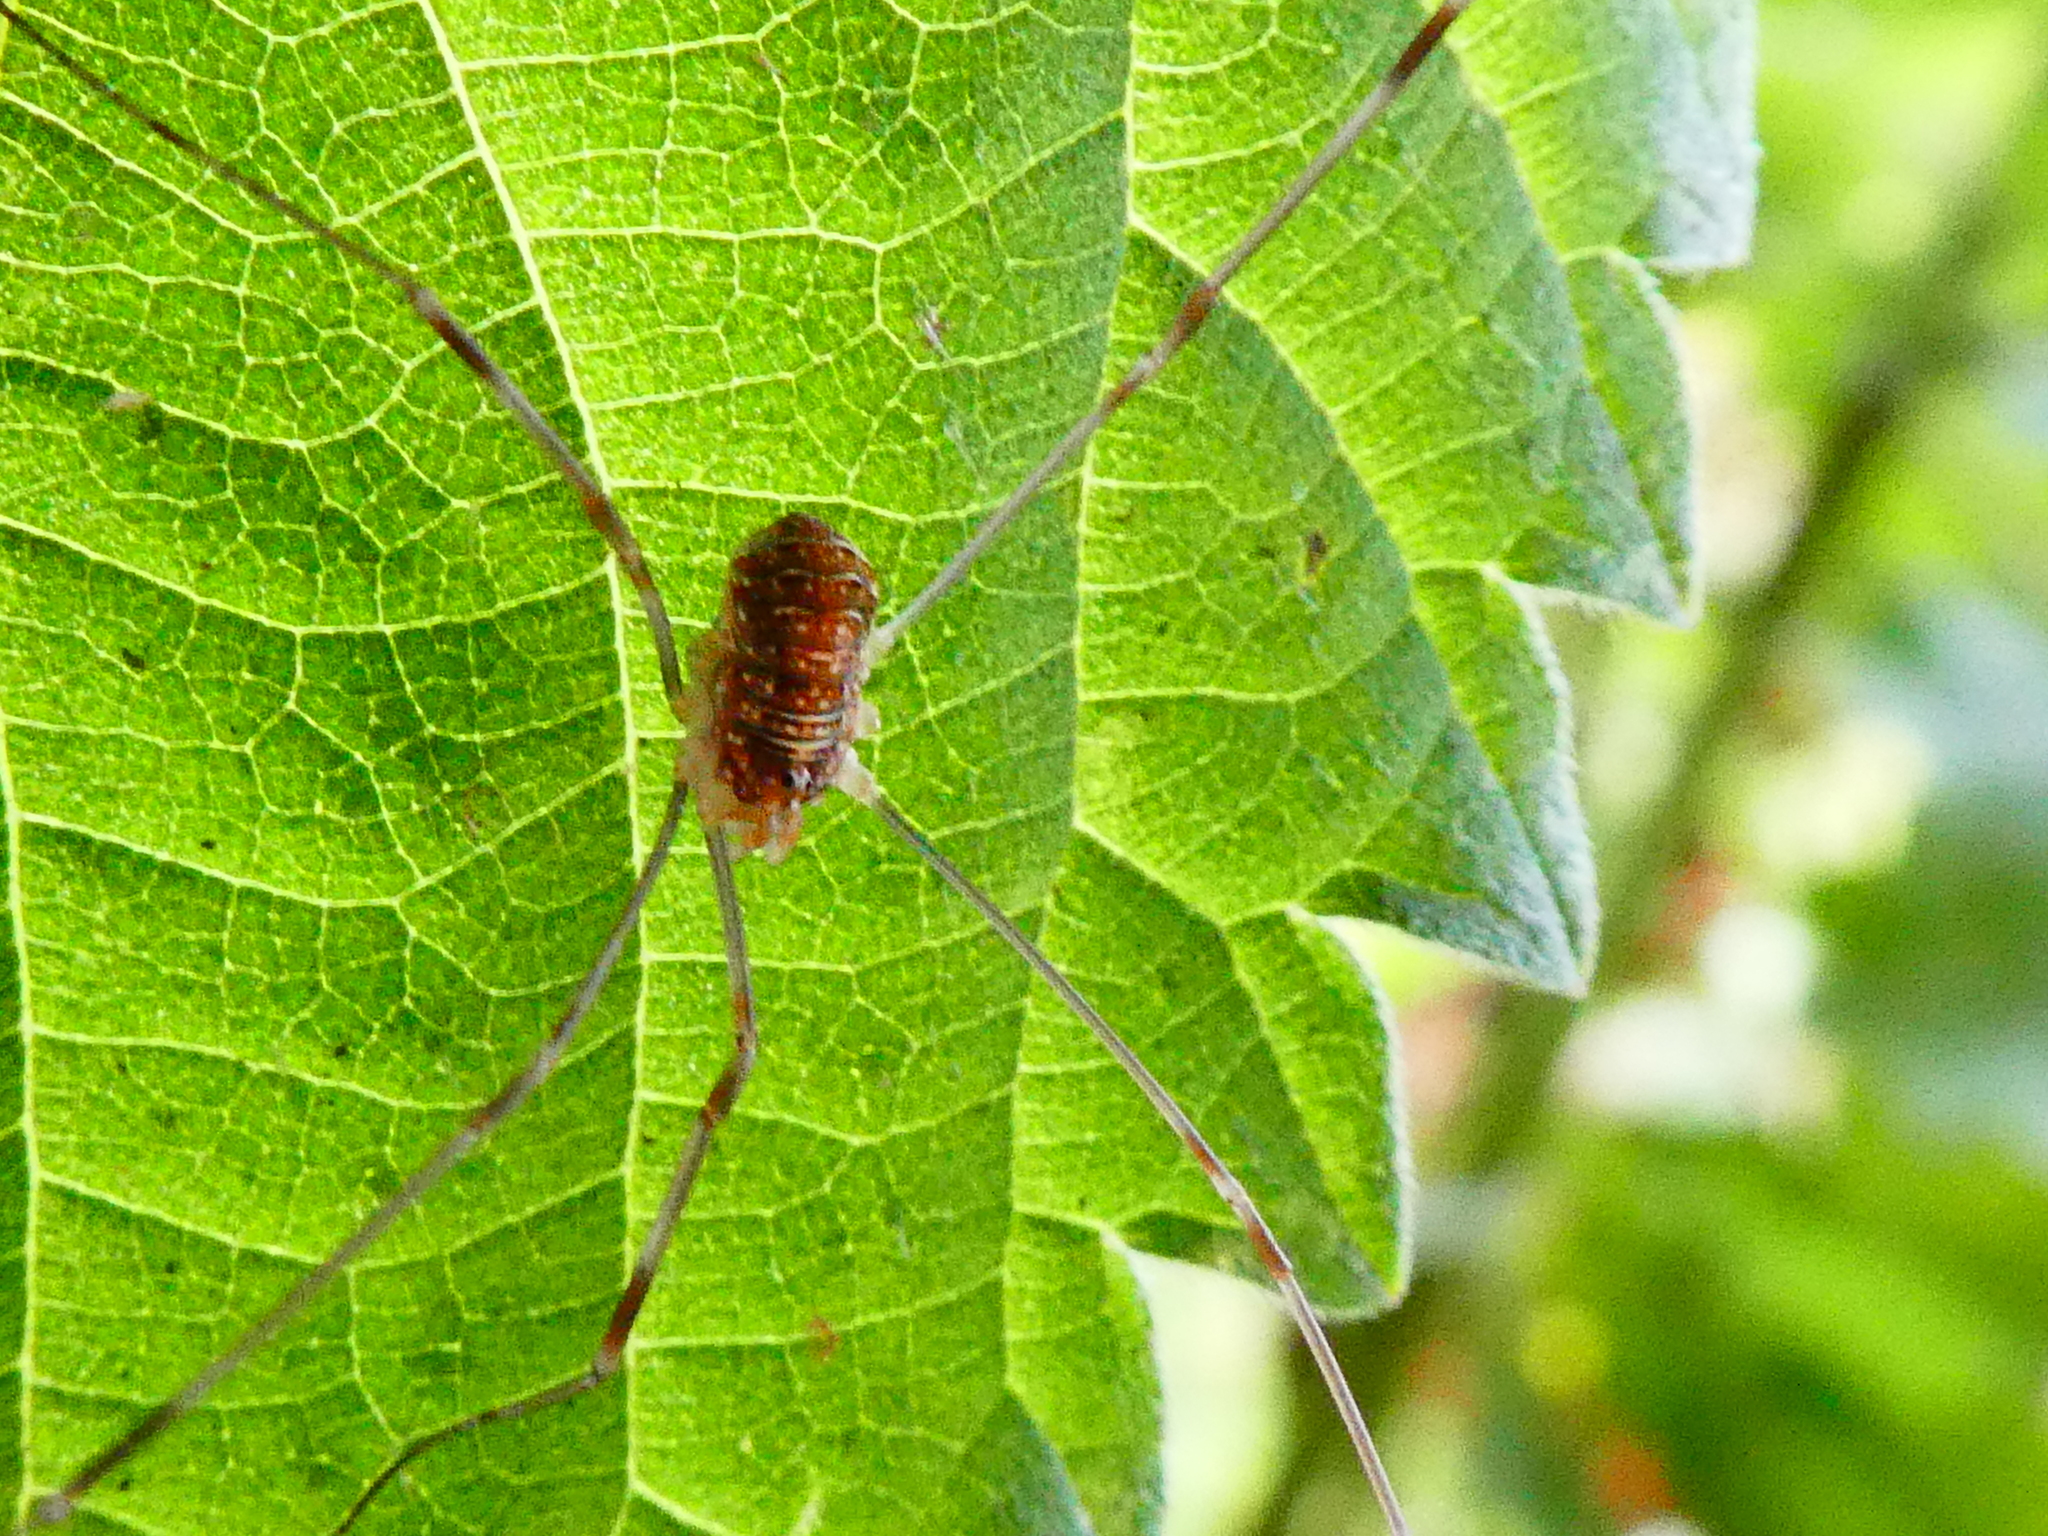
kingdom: Animalia
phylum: Arthropoda
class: Arachnida
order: Opiliones
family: Phalangiidae
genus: Opilio
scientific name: Opilio canestrinii
